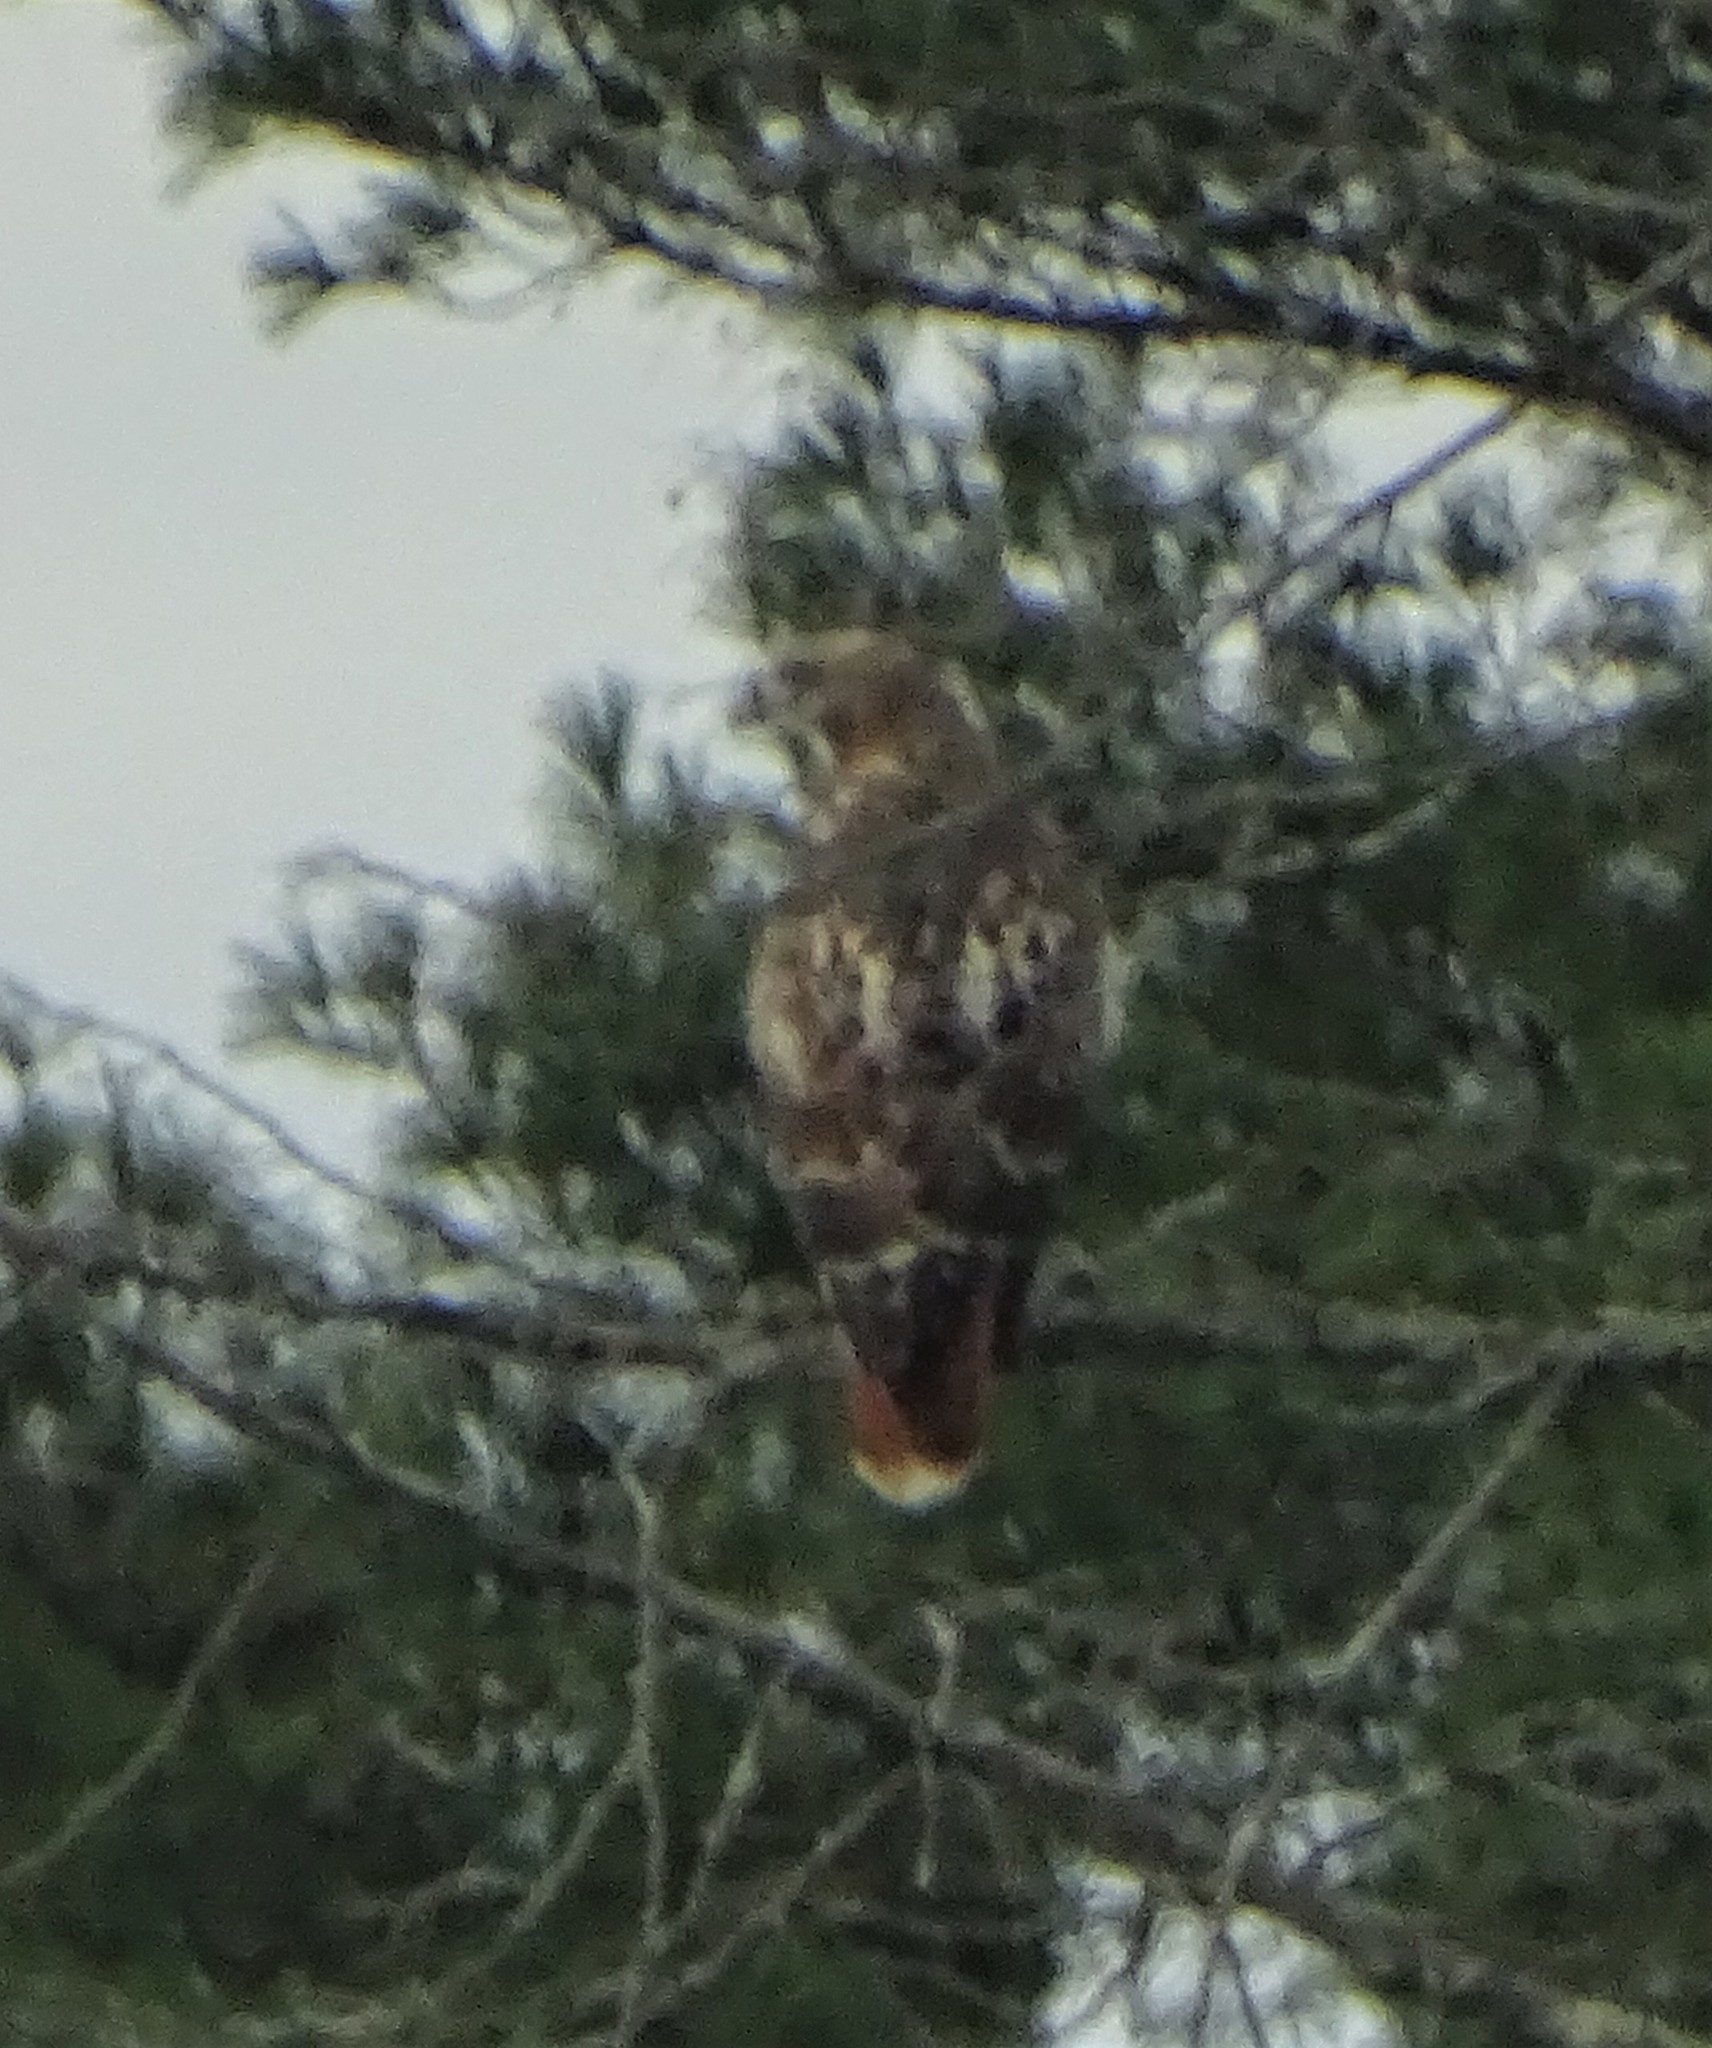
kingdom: Animalia
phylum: Chordata
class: Aves
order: Accipitriformes
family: Accipitridae
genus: Buteo
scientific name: Buteo jamaicensis
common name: Red-tailed hawk
